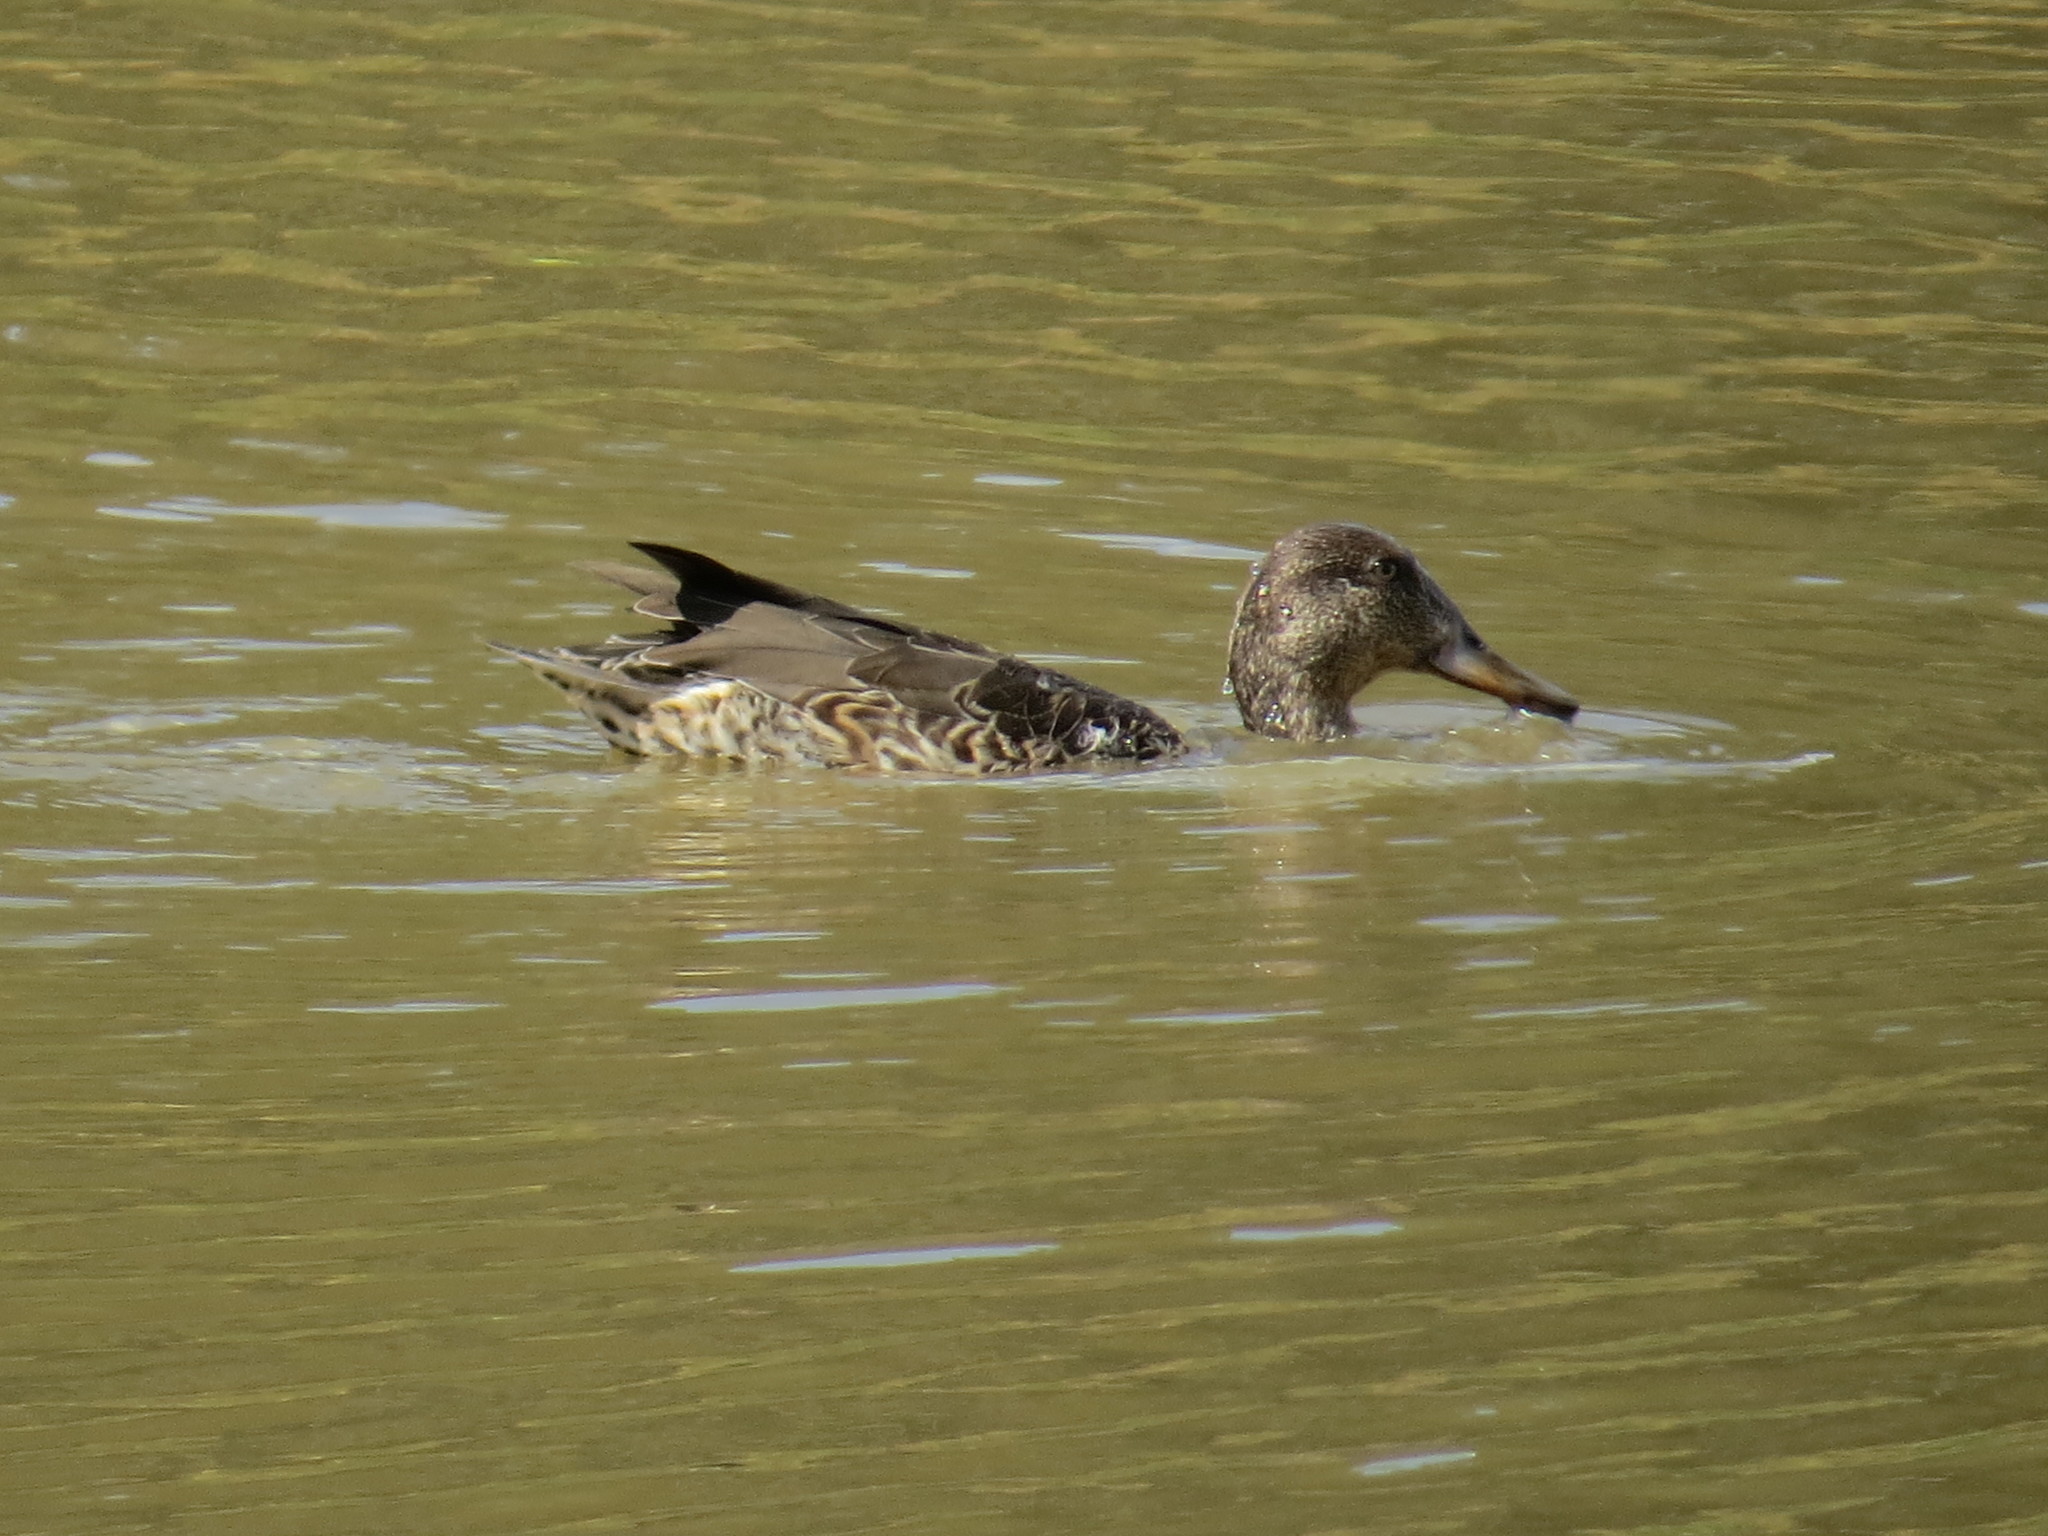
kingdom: Animalia
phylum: Chordata
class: Aves
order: Anseriformes
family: Anatidae
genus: Anas
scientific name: Anas crecca
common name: Eurasian teal
